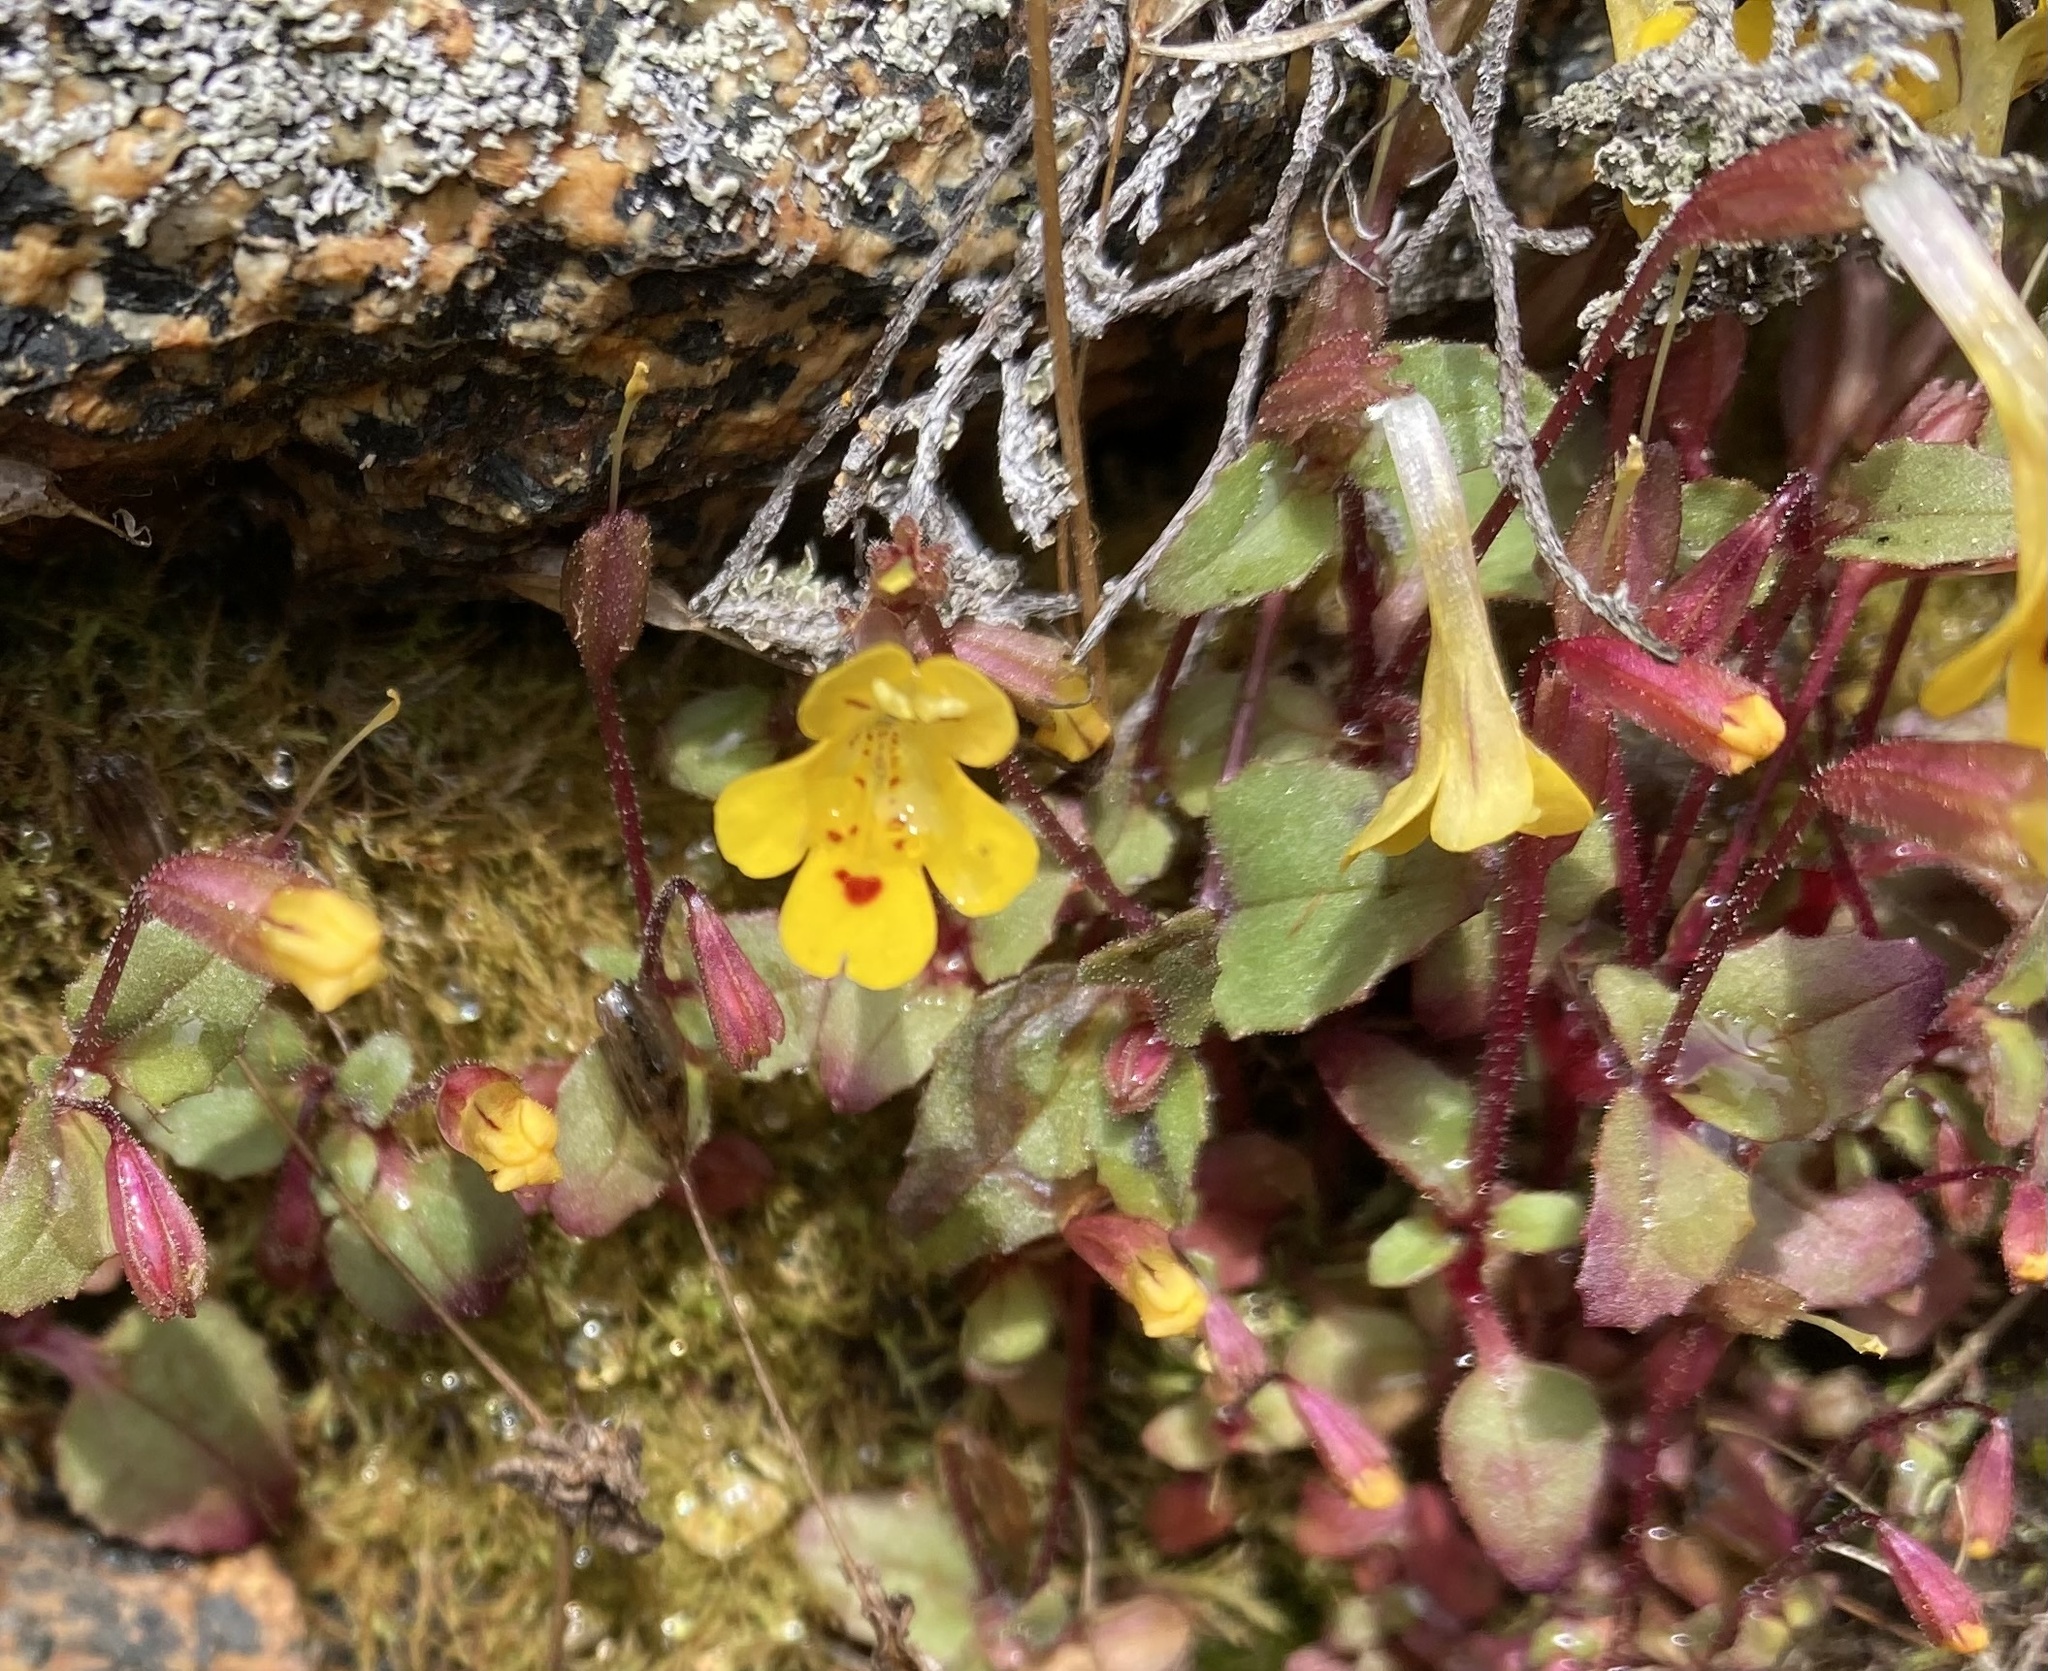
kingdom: Plantae
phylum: Tracheophyta
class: Magnoliopsida
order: Lamiales
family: Phrymaceae
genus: Erythranthe
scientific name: Erythranthe alsinoides
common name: Chickweed monkeyflower
